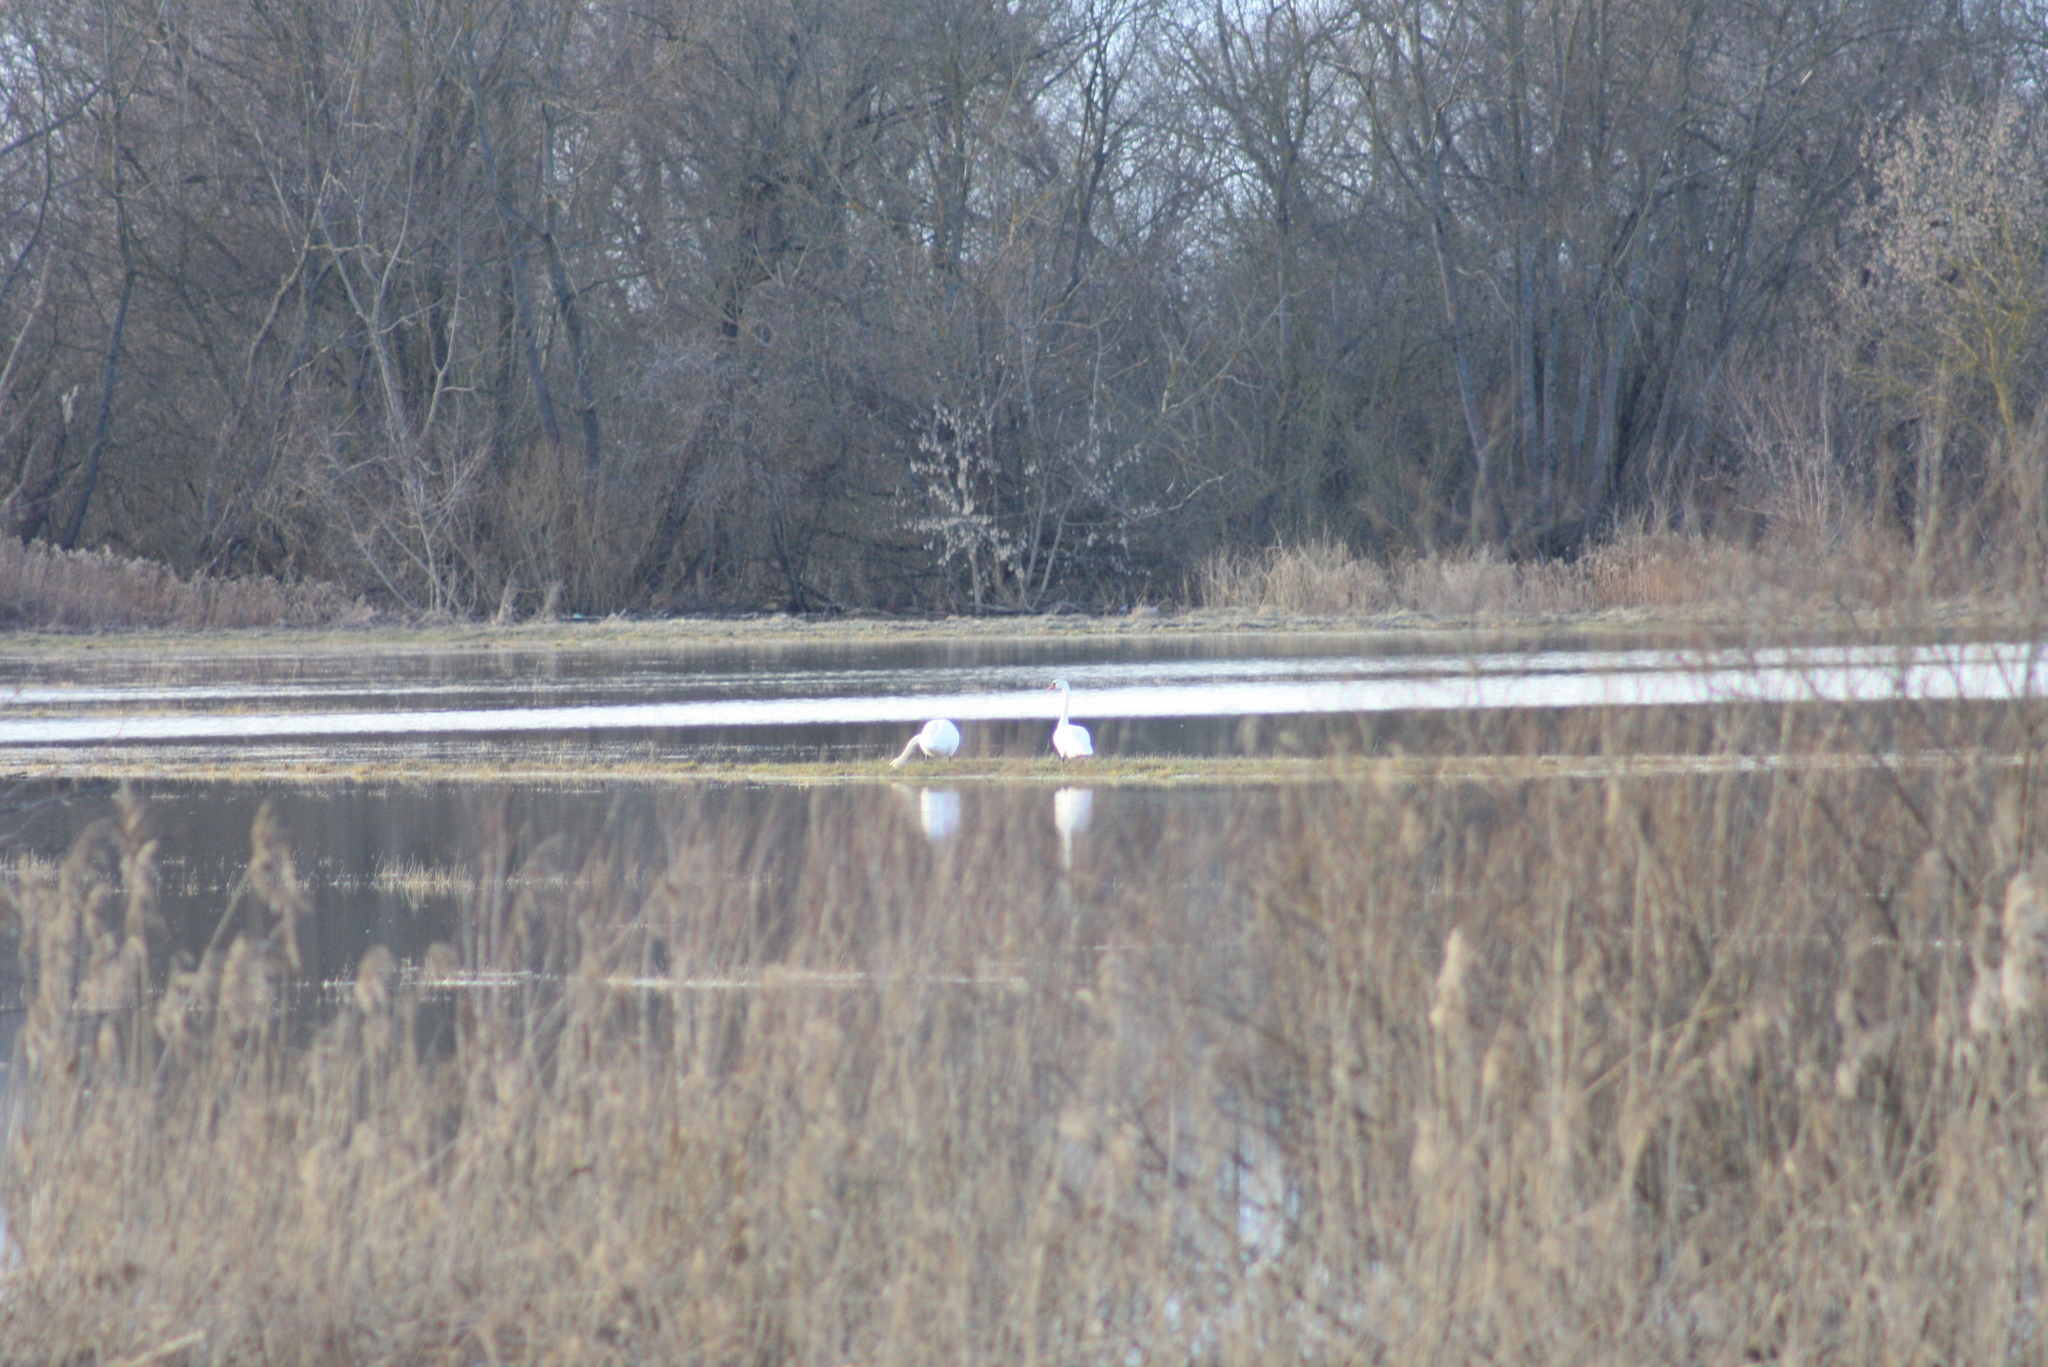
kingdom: Animalia
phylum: Chordata
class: Aves
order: Anseriformes
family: Anatidae
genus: Cygnus
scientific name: Cygnus olor
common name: Mute swan
